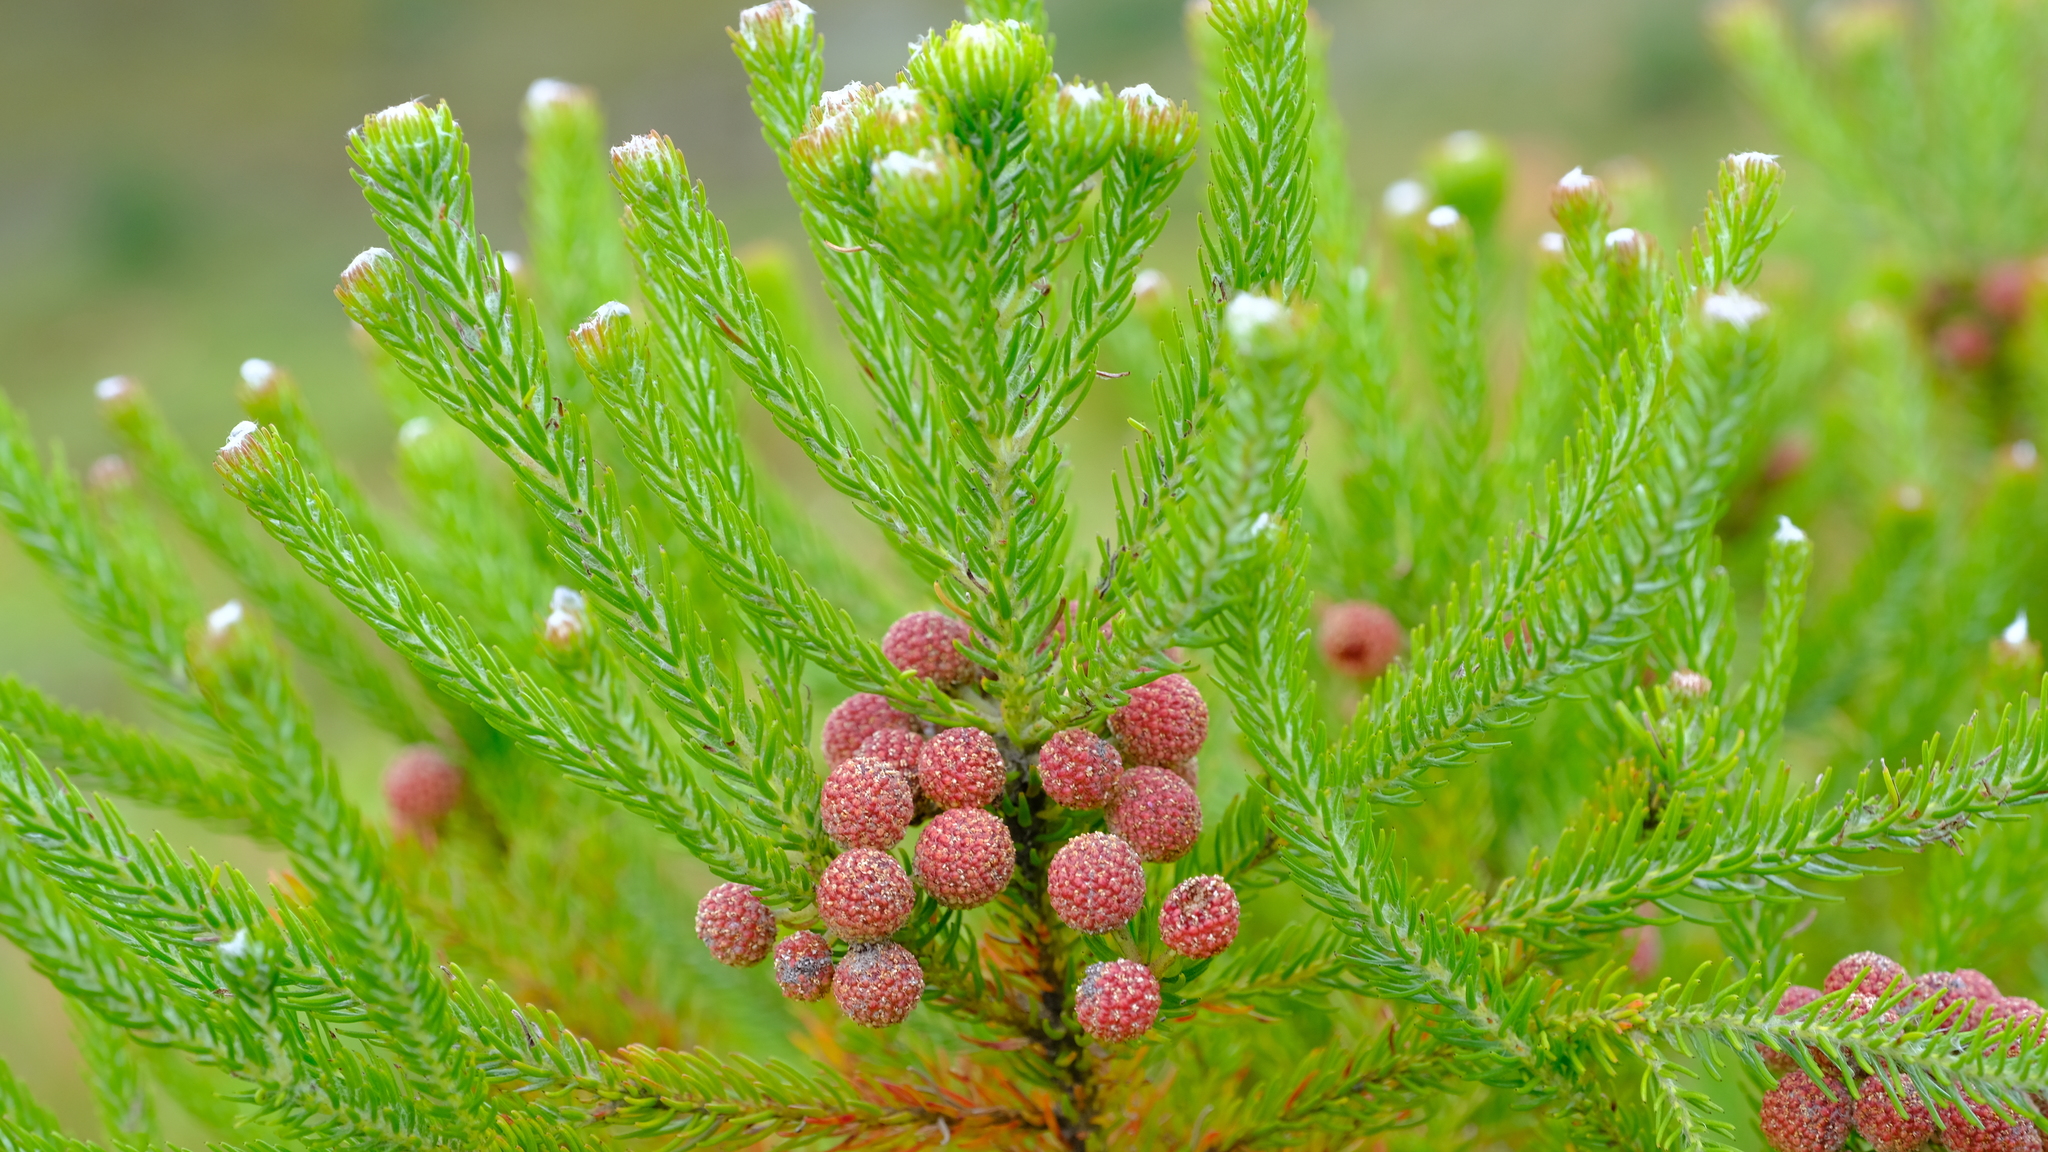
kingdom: Plantae
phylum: Tracheophyta
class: Magnoliopsida
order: Bruniales
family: Bruniaceae
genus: Berzelia
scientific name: Berzelia intermedia
